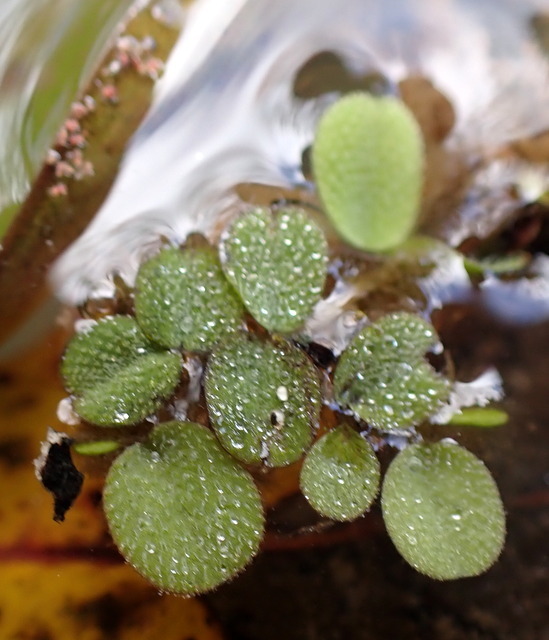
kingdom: Plantae
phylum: Tracheophyta
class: Polypodiopsida
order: Salviniales
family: Salviniaceae
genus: Salvinia
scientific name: Salvinia minima
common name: Water spangles
